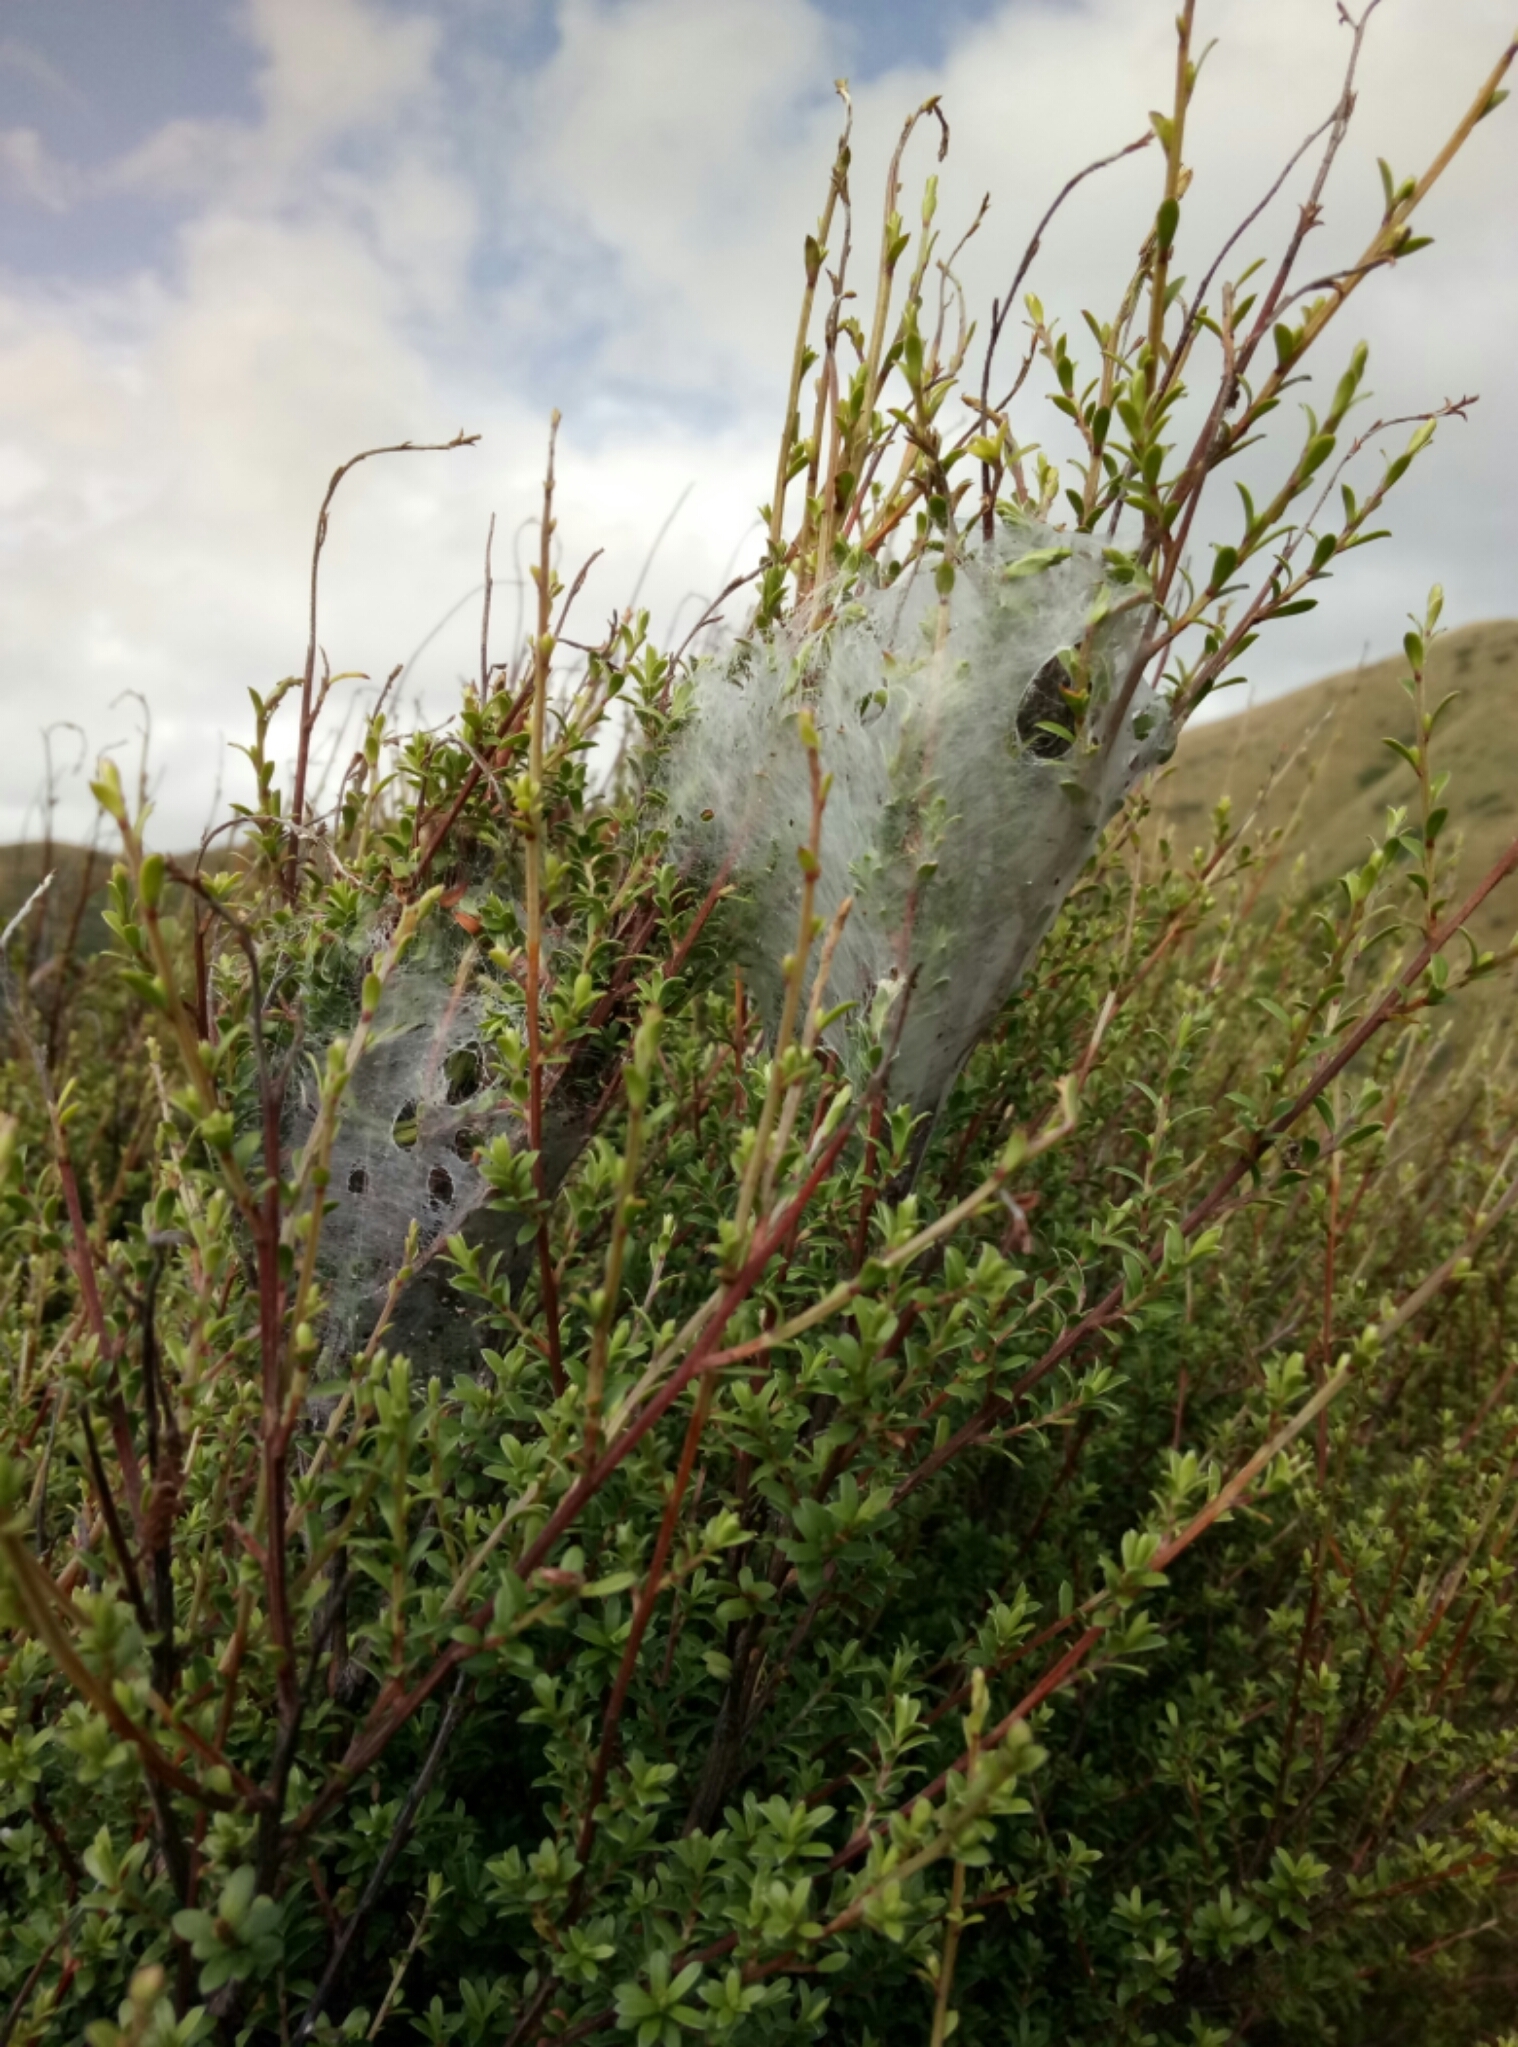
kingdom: Animalia
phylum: Arthropoda
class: Arachnida
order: Araneae
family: Pisauridae
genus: Dolomedes
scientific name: Dolomedes minor
